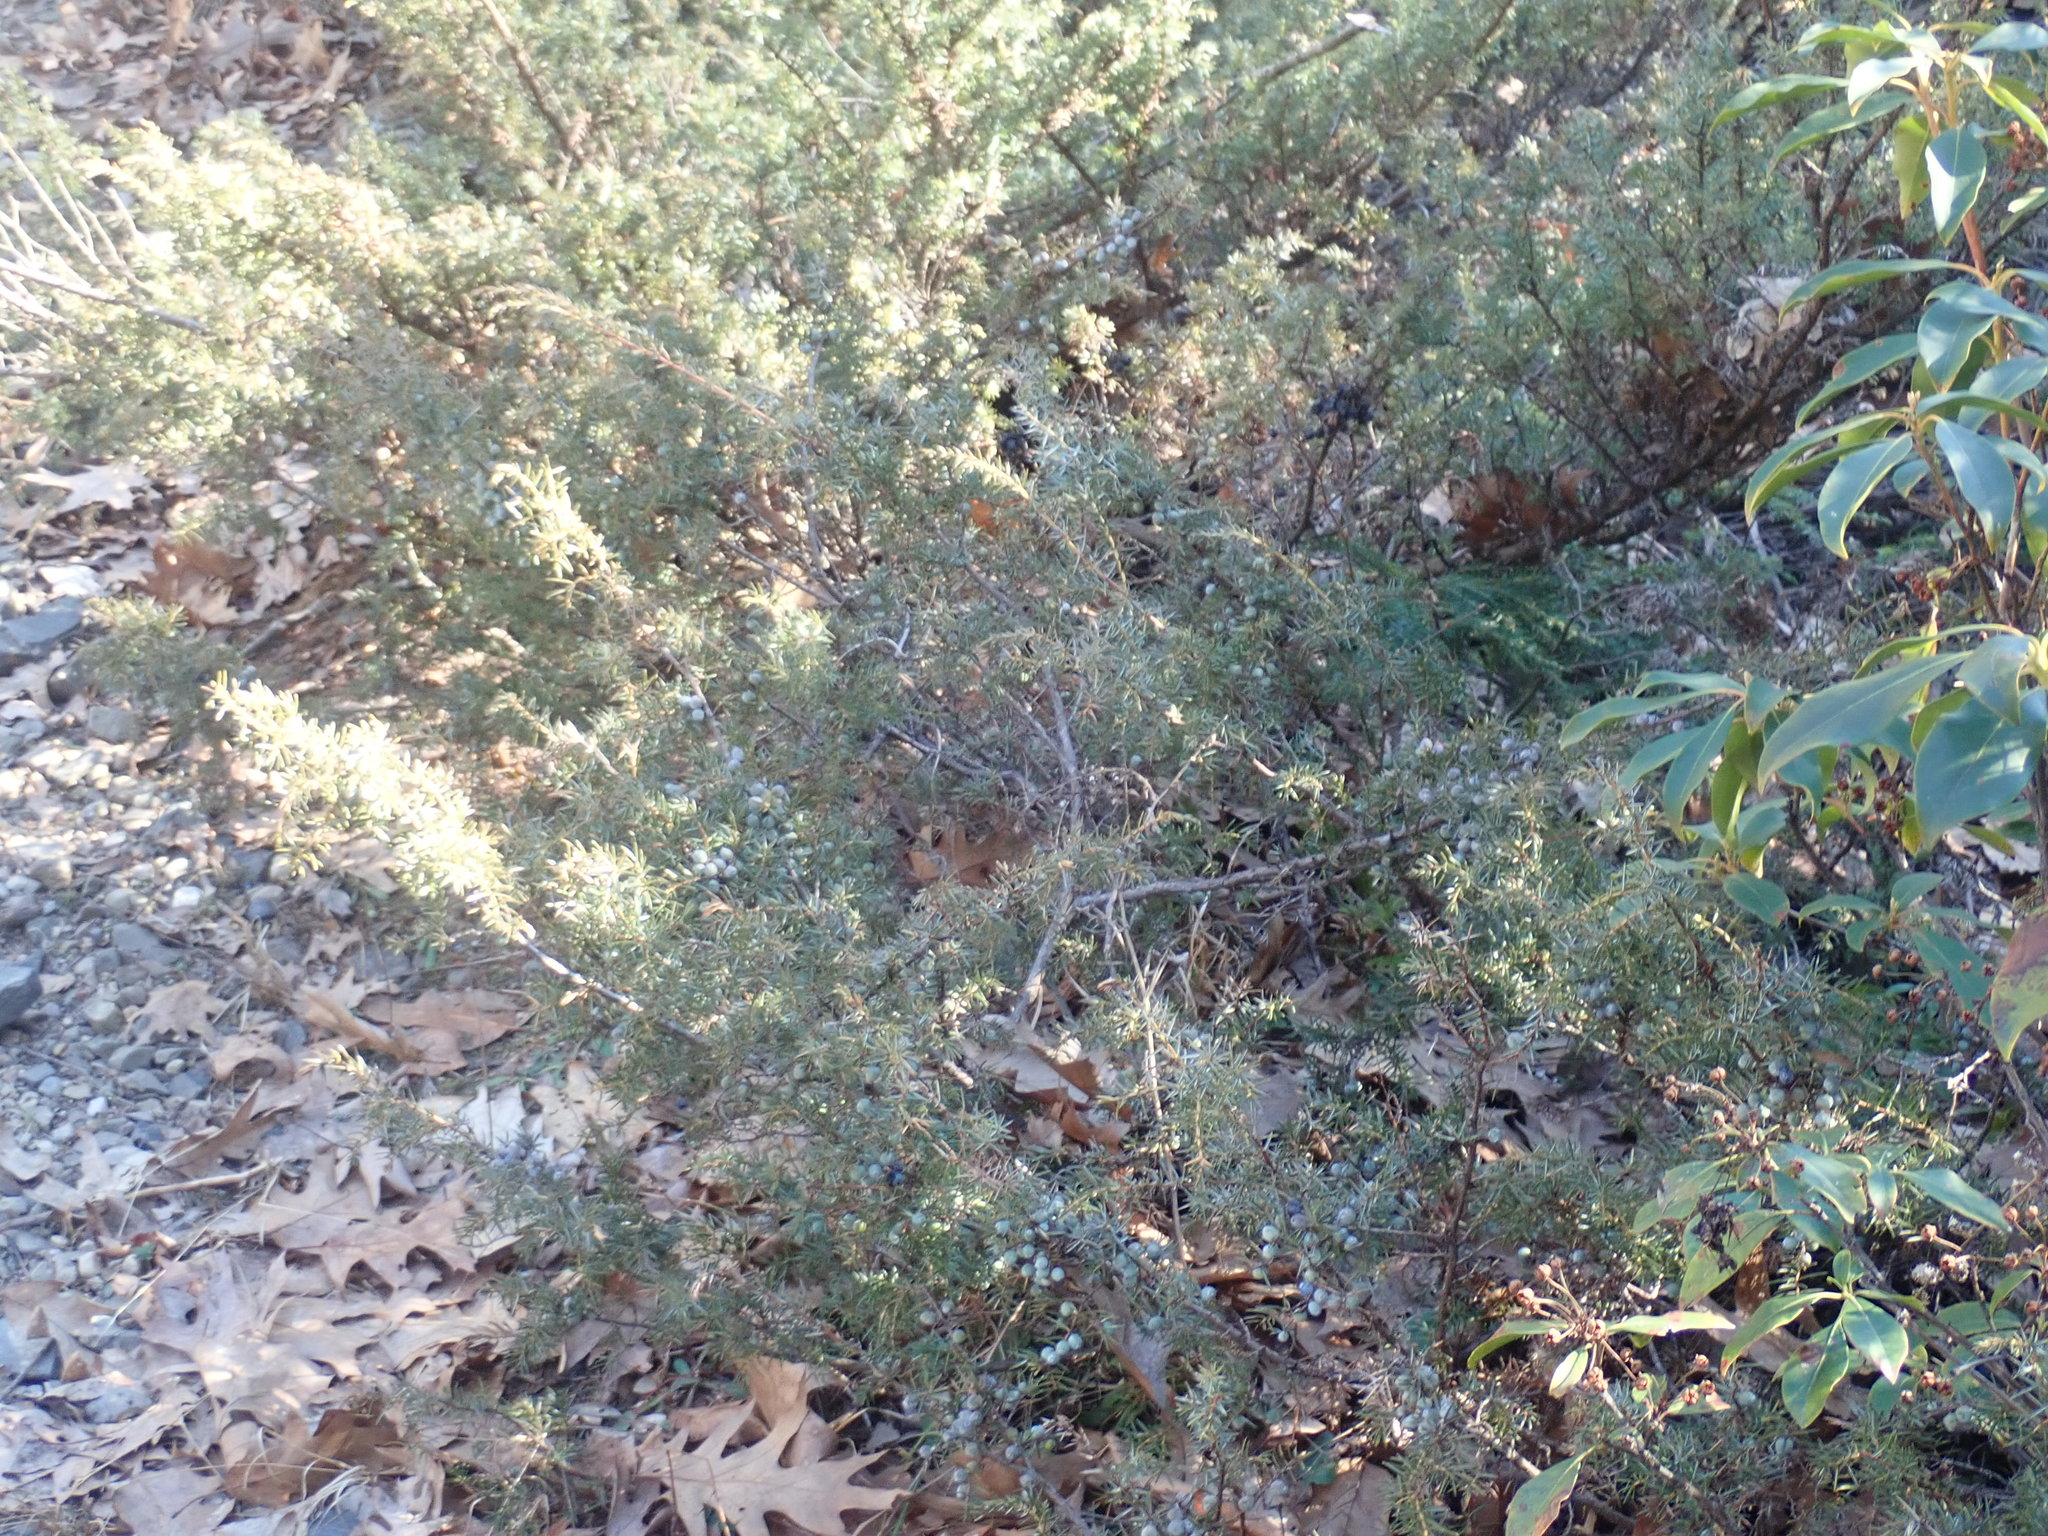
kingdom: Plantae
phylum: Tracheophyta
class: Pinopsida
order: Pinales
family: Cupressaceae
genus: Juniperus
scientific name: Juniperus communis
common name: Common juniper
